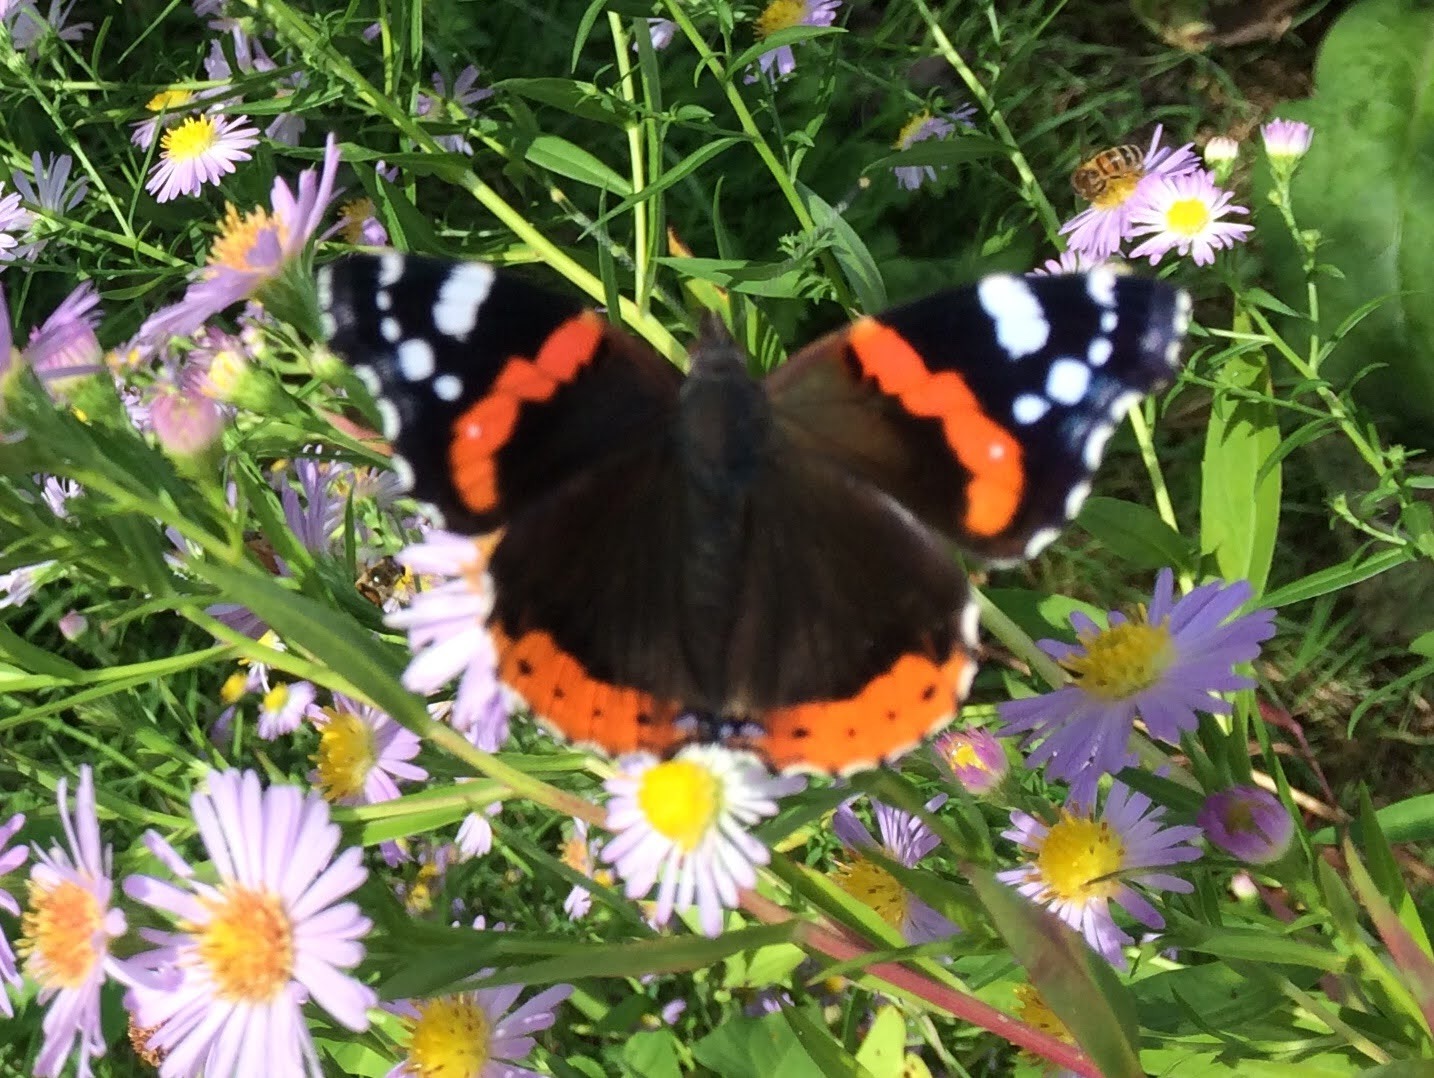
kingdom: Animalia
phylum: Arthropoda
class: Insecta
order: Lepidoptera
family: Nymphalidae
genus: Vanessa
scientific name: Vanessa atalanta
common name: Red admiral
